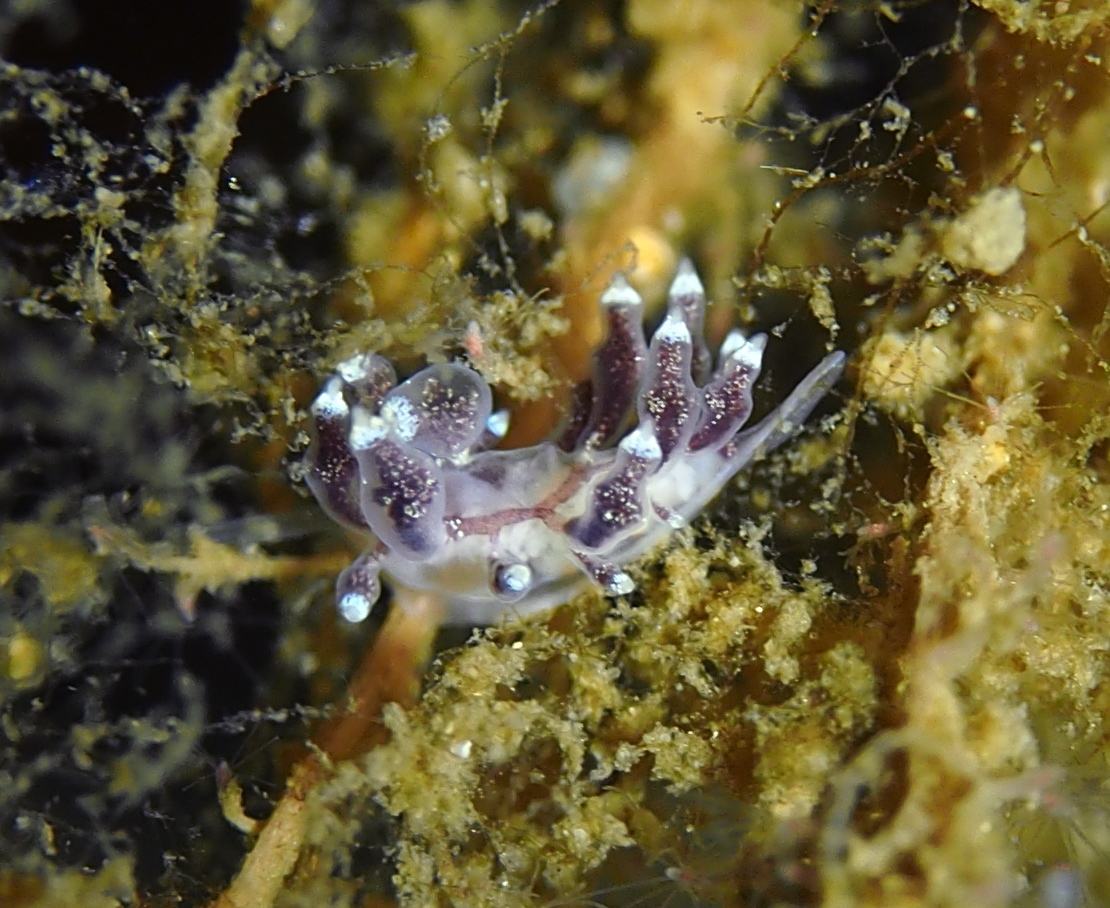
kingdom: Animalia
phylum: Mollusca
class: Gastropoda
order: Nudibranchia
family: Eubranchidae
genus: Eubranchus
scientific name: Eubranchus exiguus
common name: Balloon aeolis
